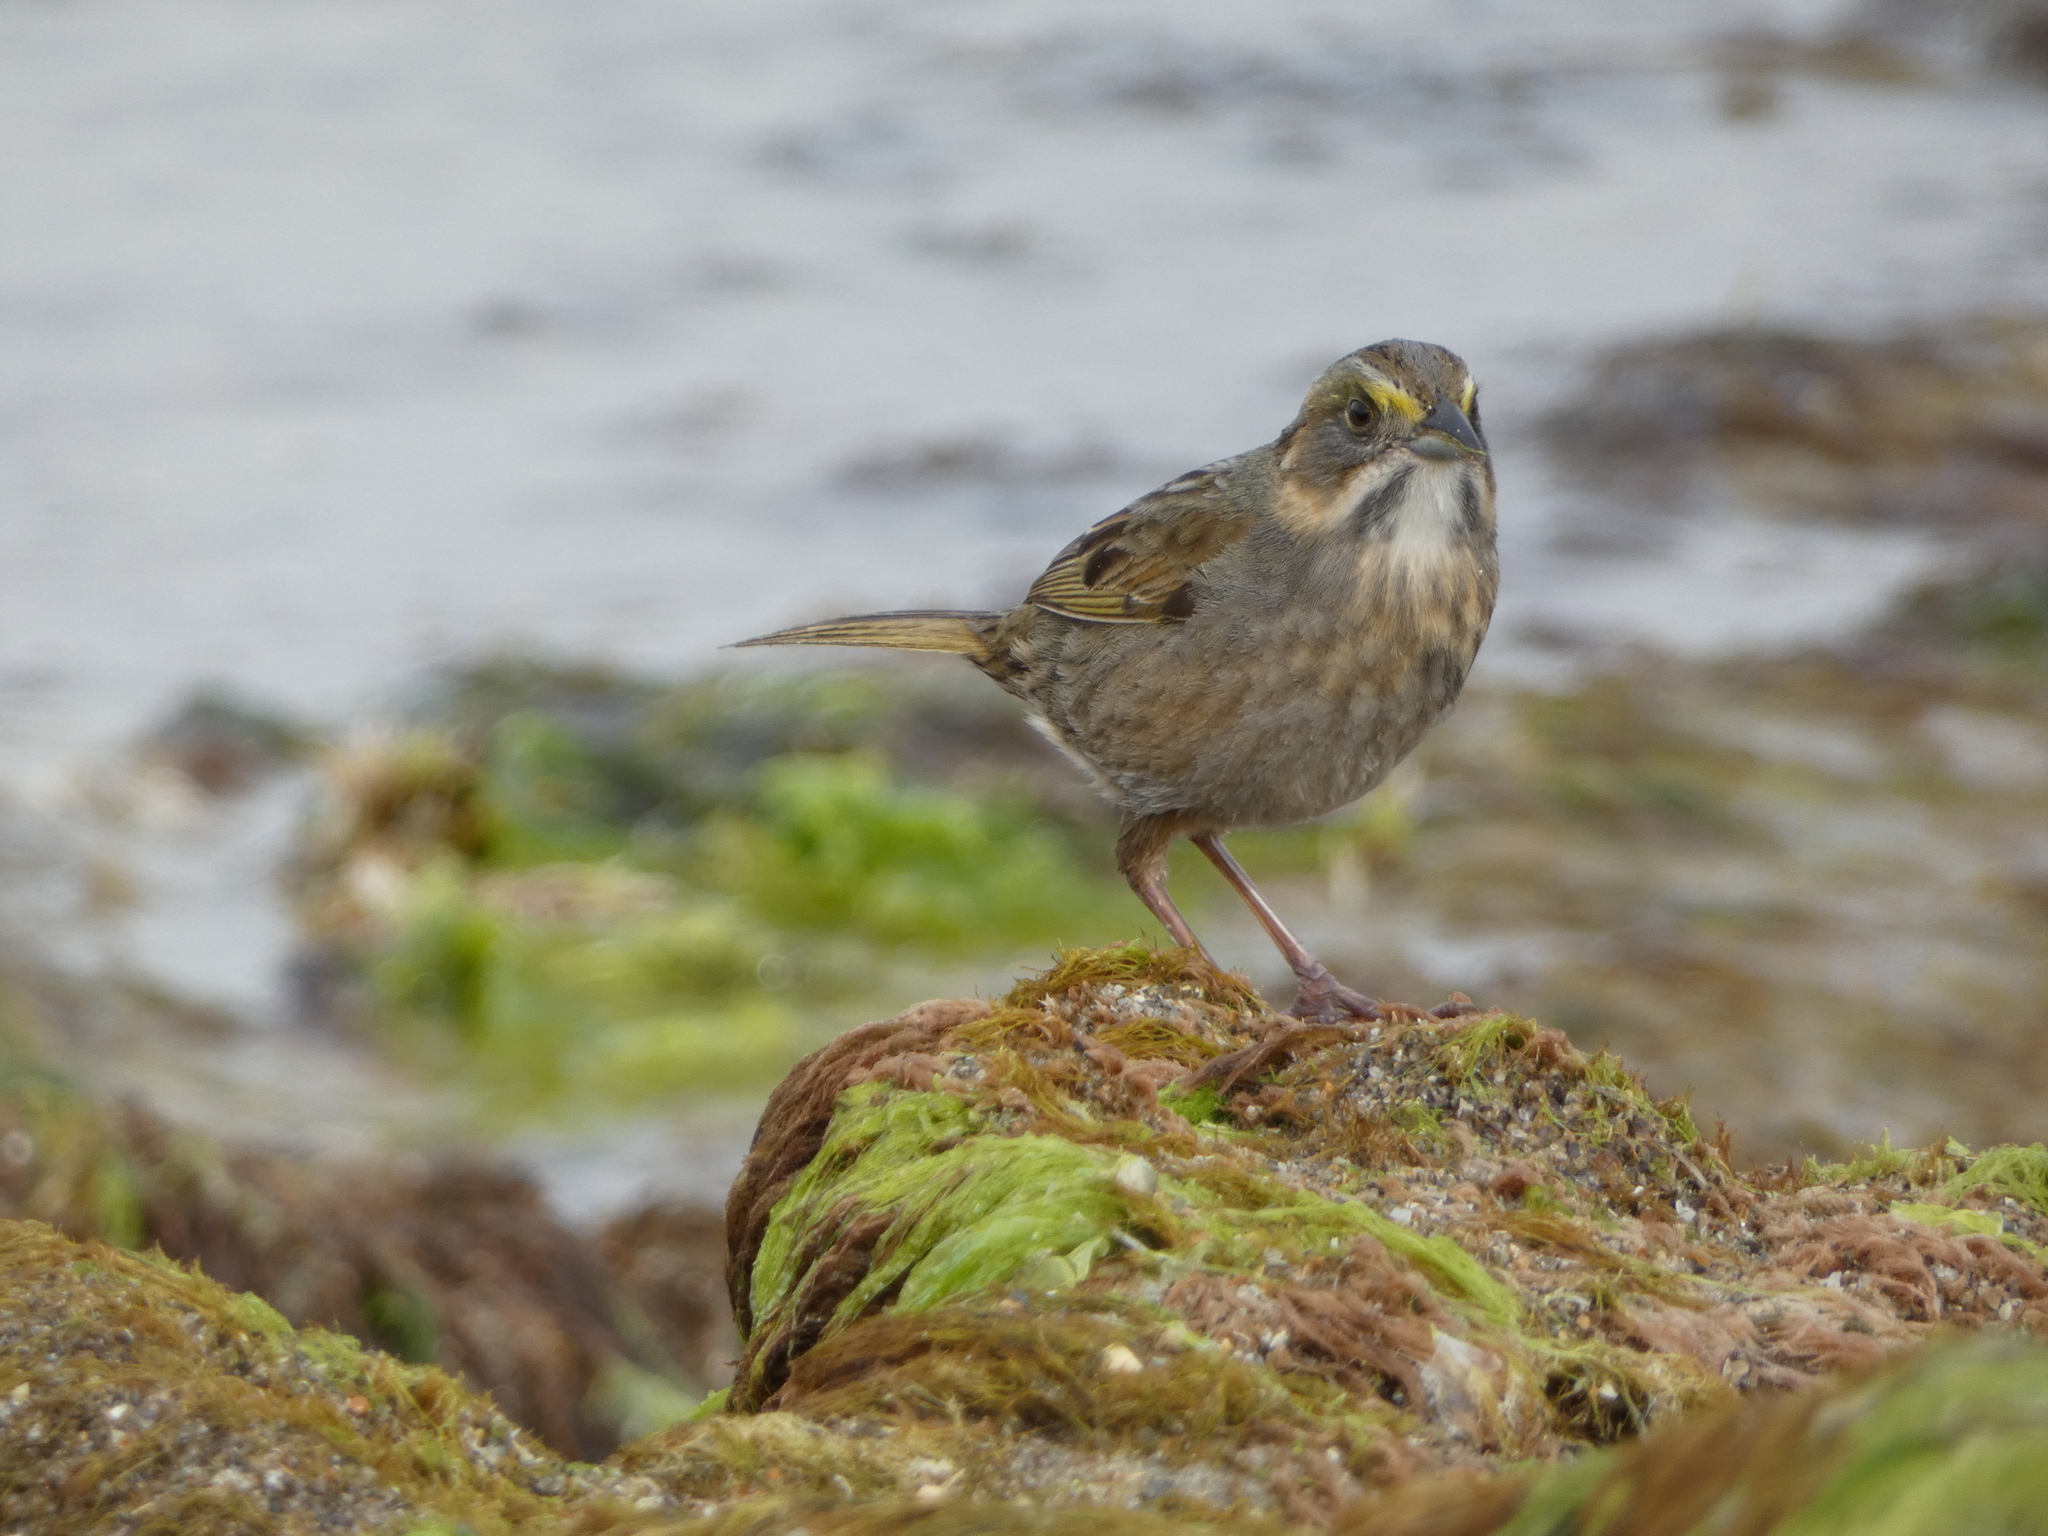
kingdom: Animalia
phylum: Chordata
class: Aves
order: Passeriformes
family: Passerellidae
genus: Ammospiza
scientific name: Ammospiza maritima
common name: Seaside sparrow
